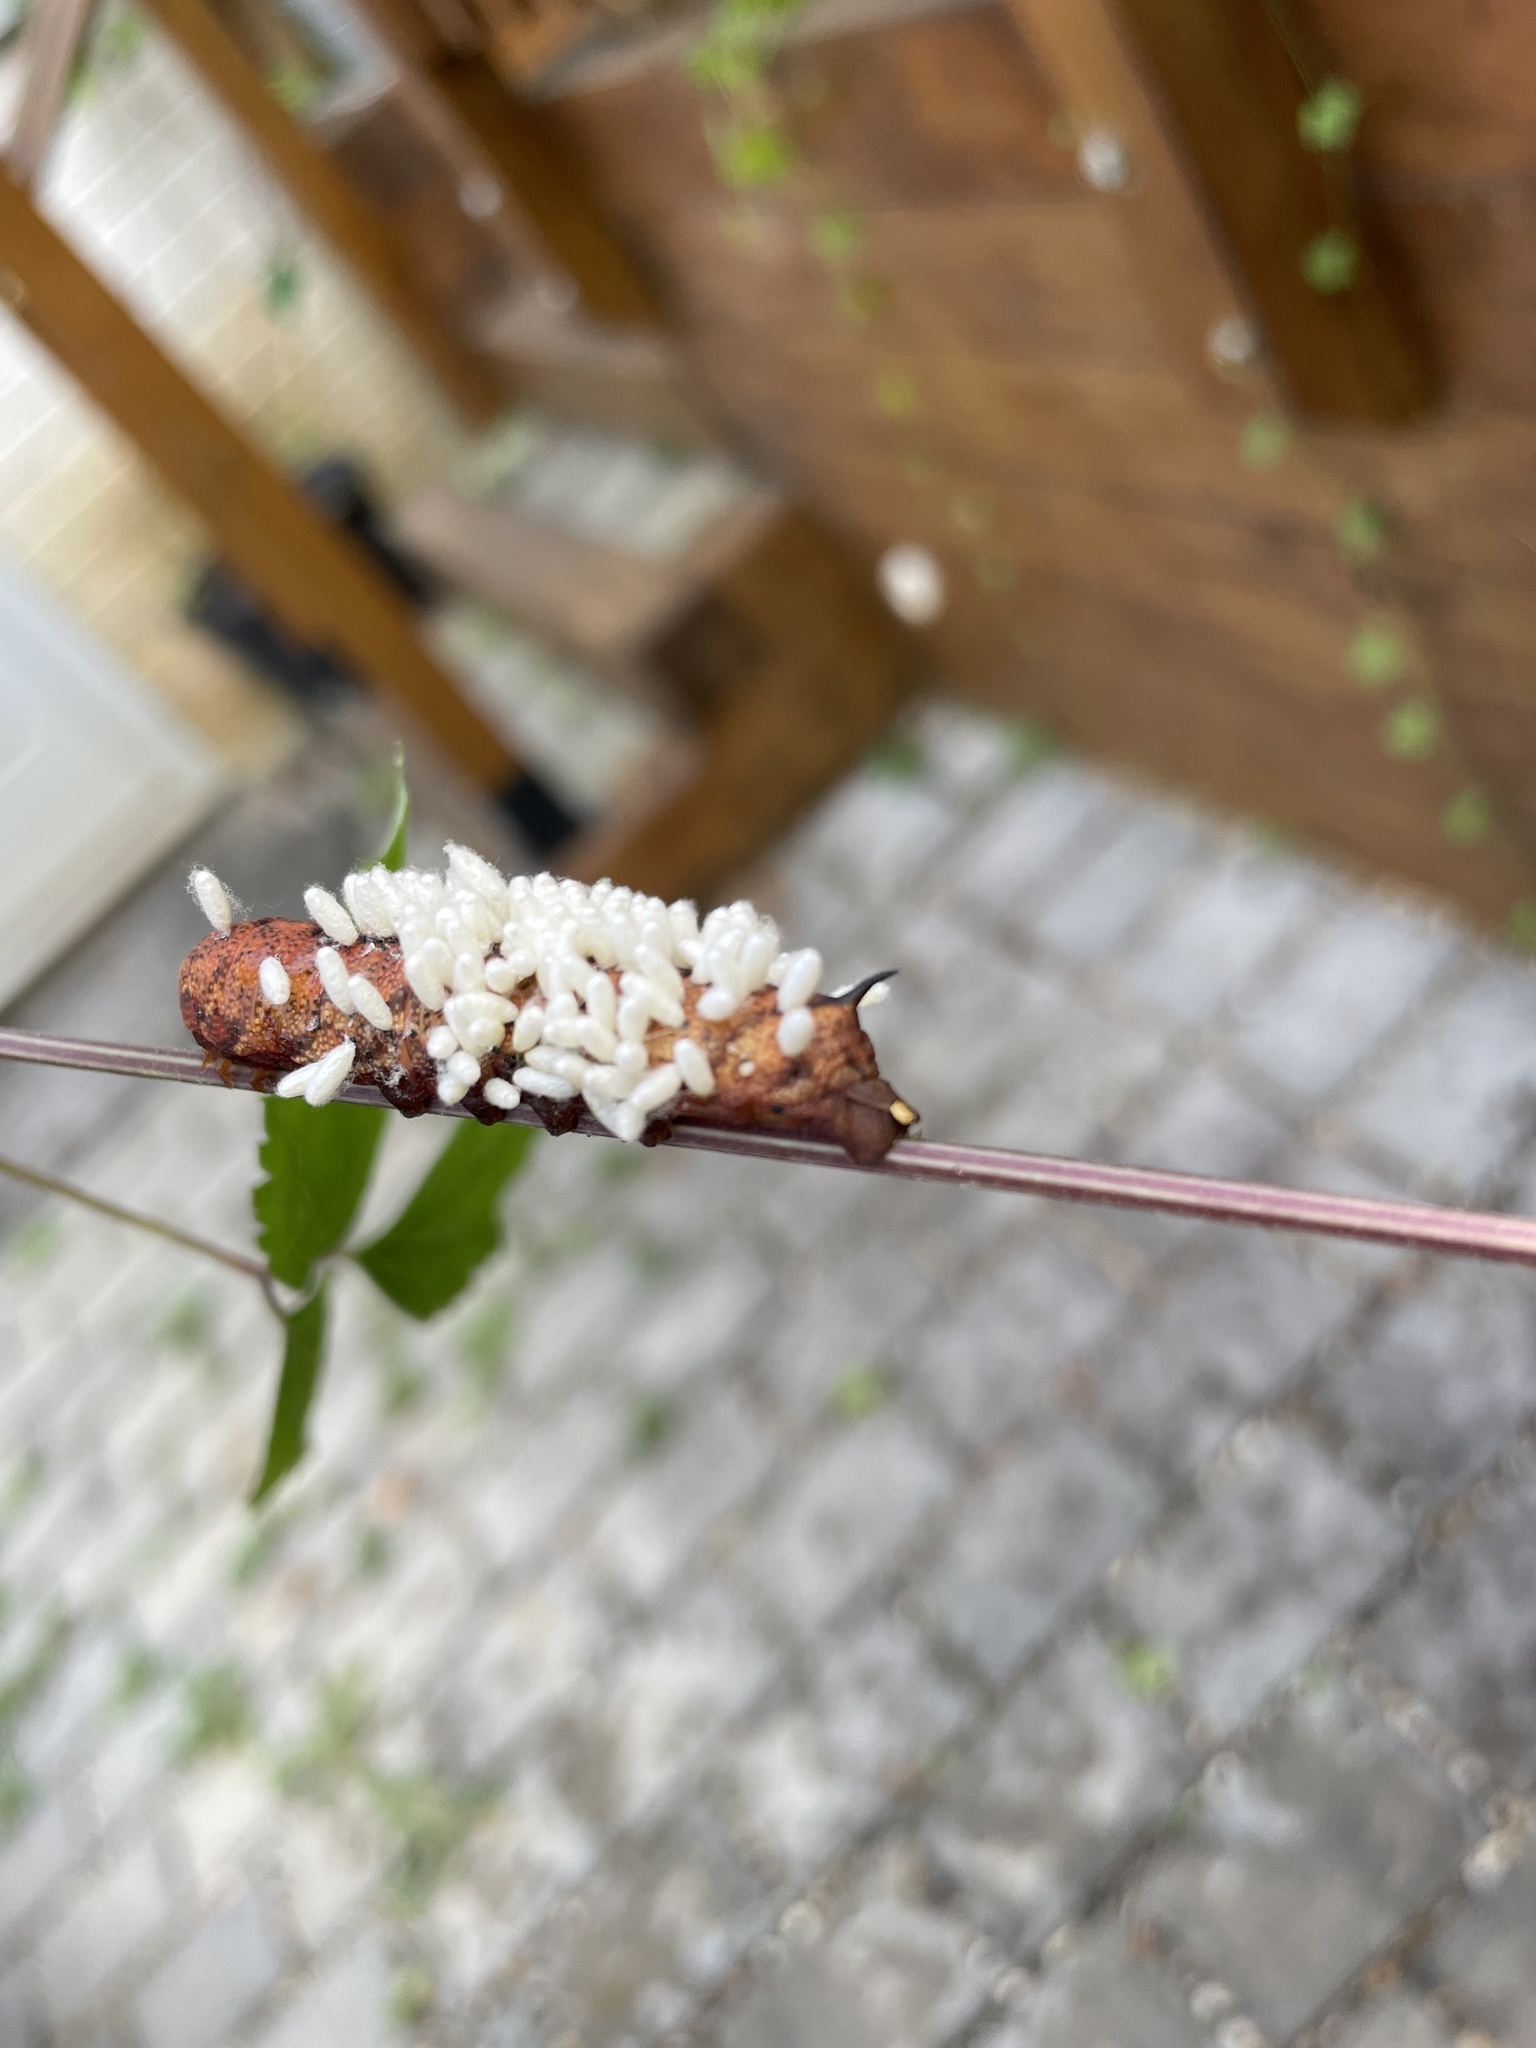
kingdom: Animalia
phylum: Arthropoda
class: Insecta
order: Lepidoptera
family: Sphingidae
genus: Amphion
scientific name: Amphion floridensis
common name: Nessus sphinx
